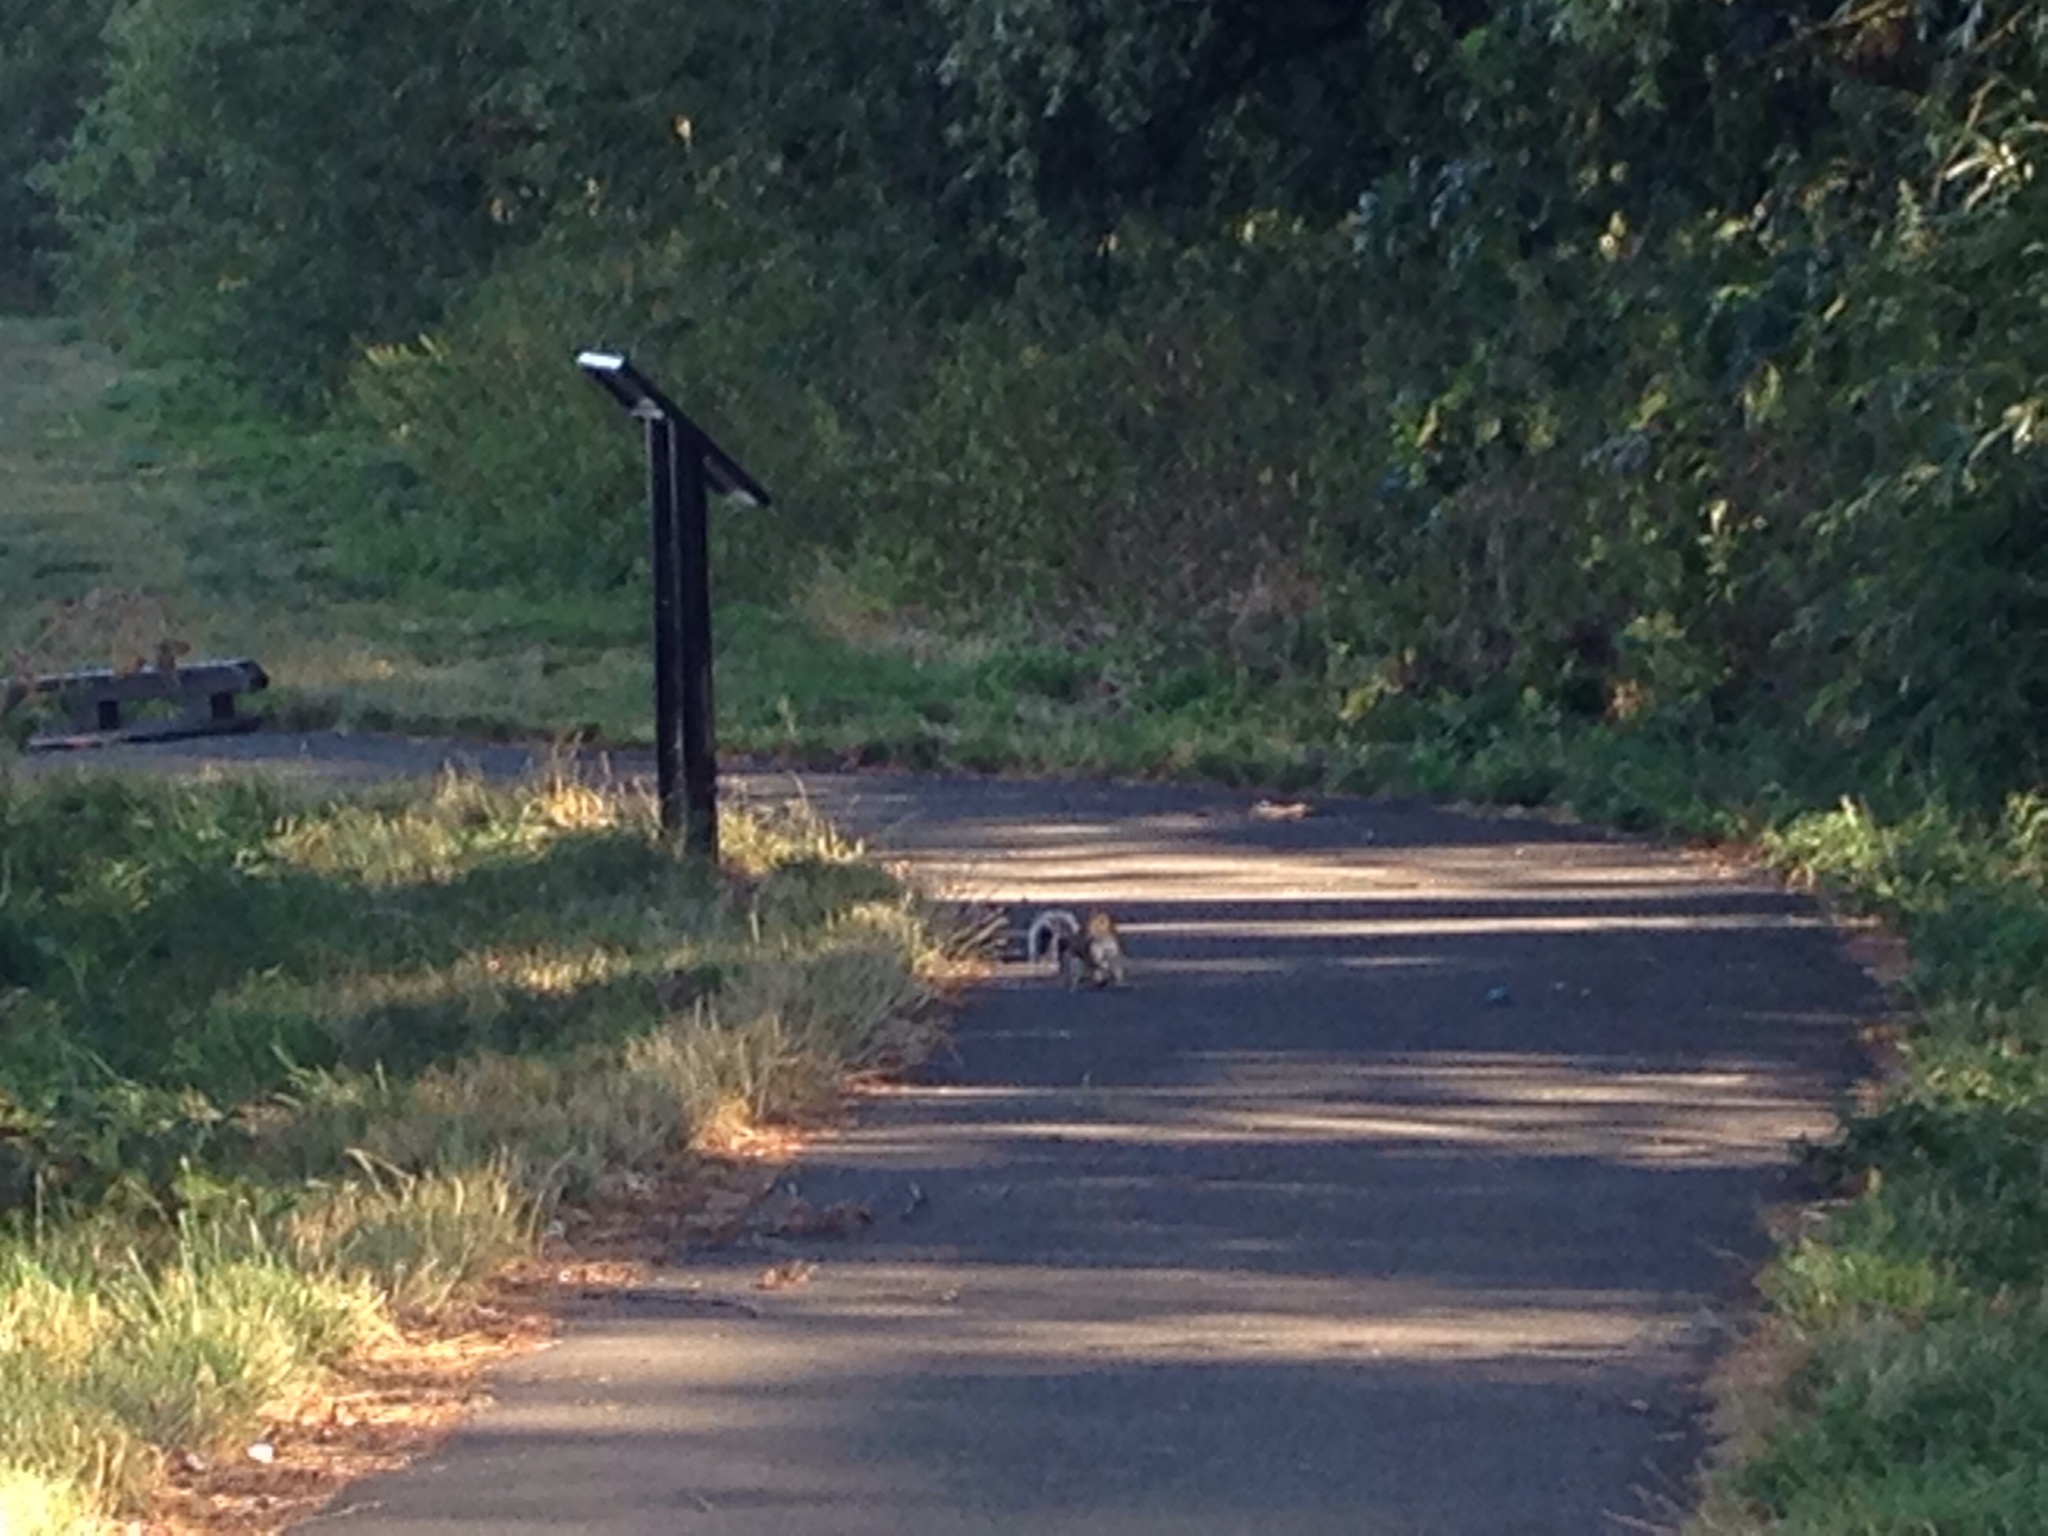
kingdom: Animalia
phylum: Chordata
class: Mammalia
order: Rodentia
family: Sciuridae
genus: Sciurus
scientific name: Sciurus carolinensis
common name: Eastern gray squirrel
